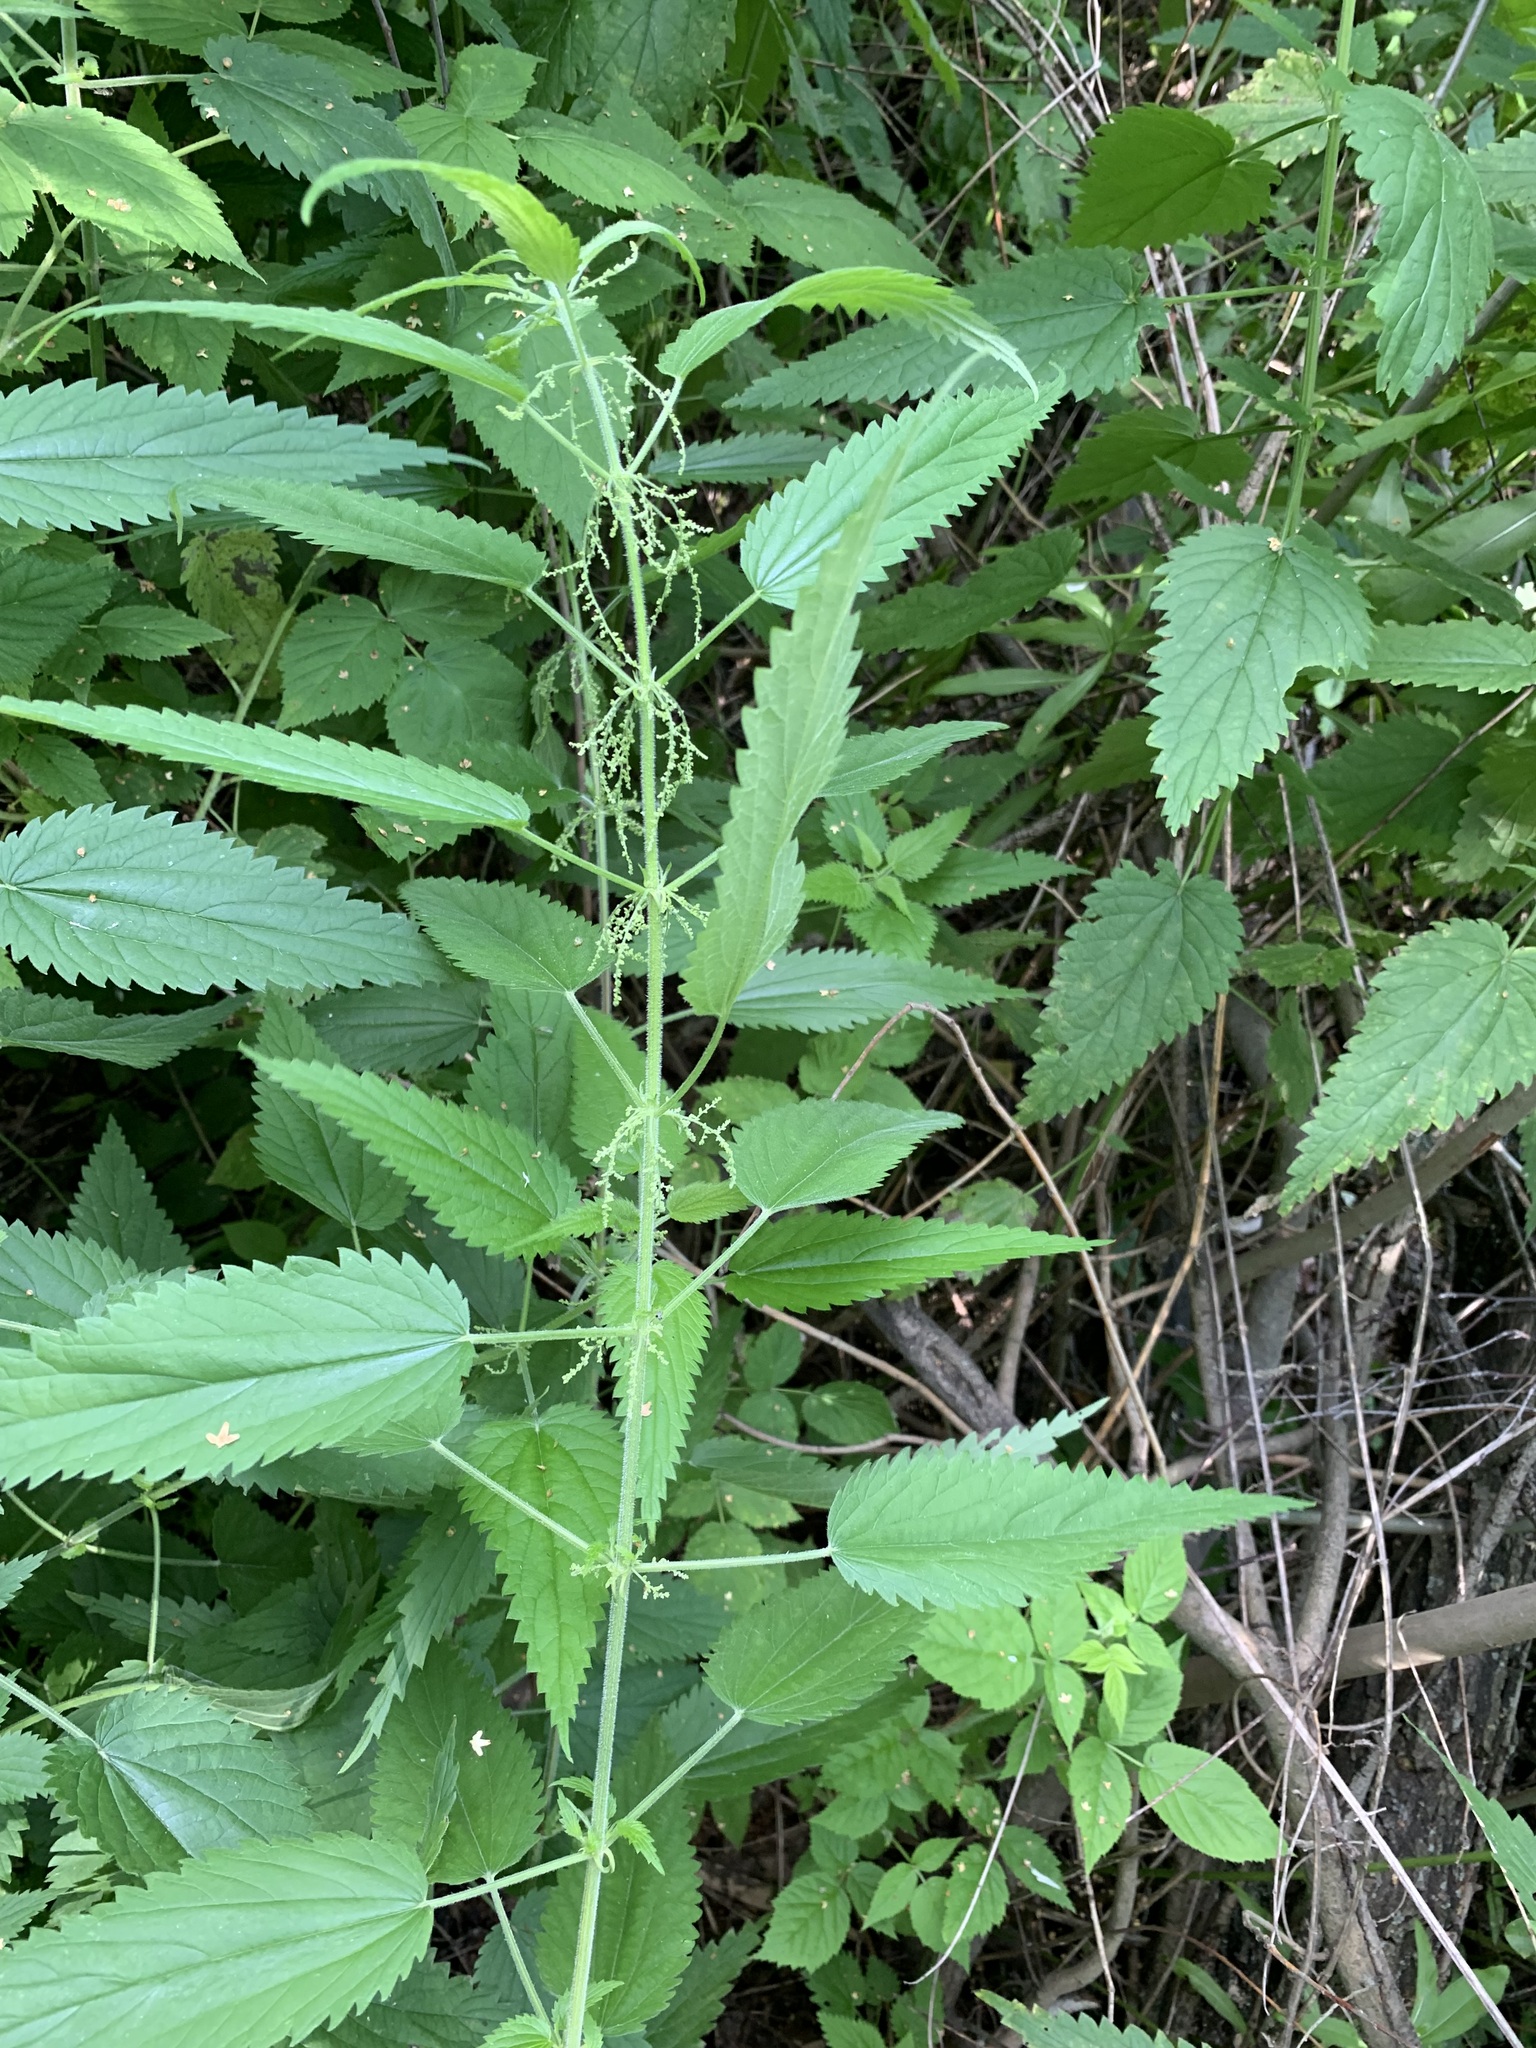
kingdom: Plantae
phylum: Tracheophyta
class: Magnoliopsida
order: Rosales
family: Urticaceae
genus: Urtica
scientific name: Urtica galeopsifolia
